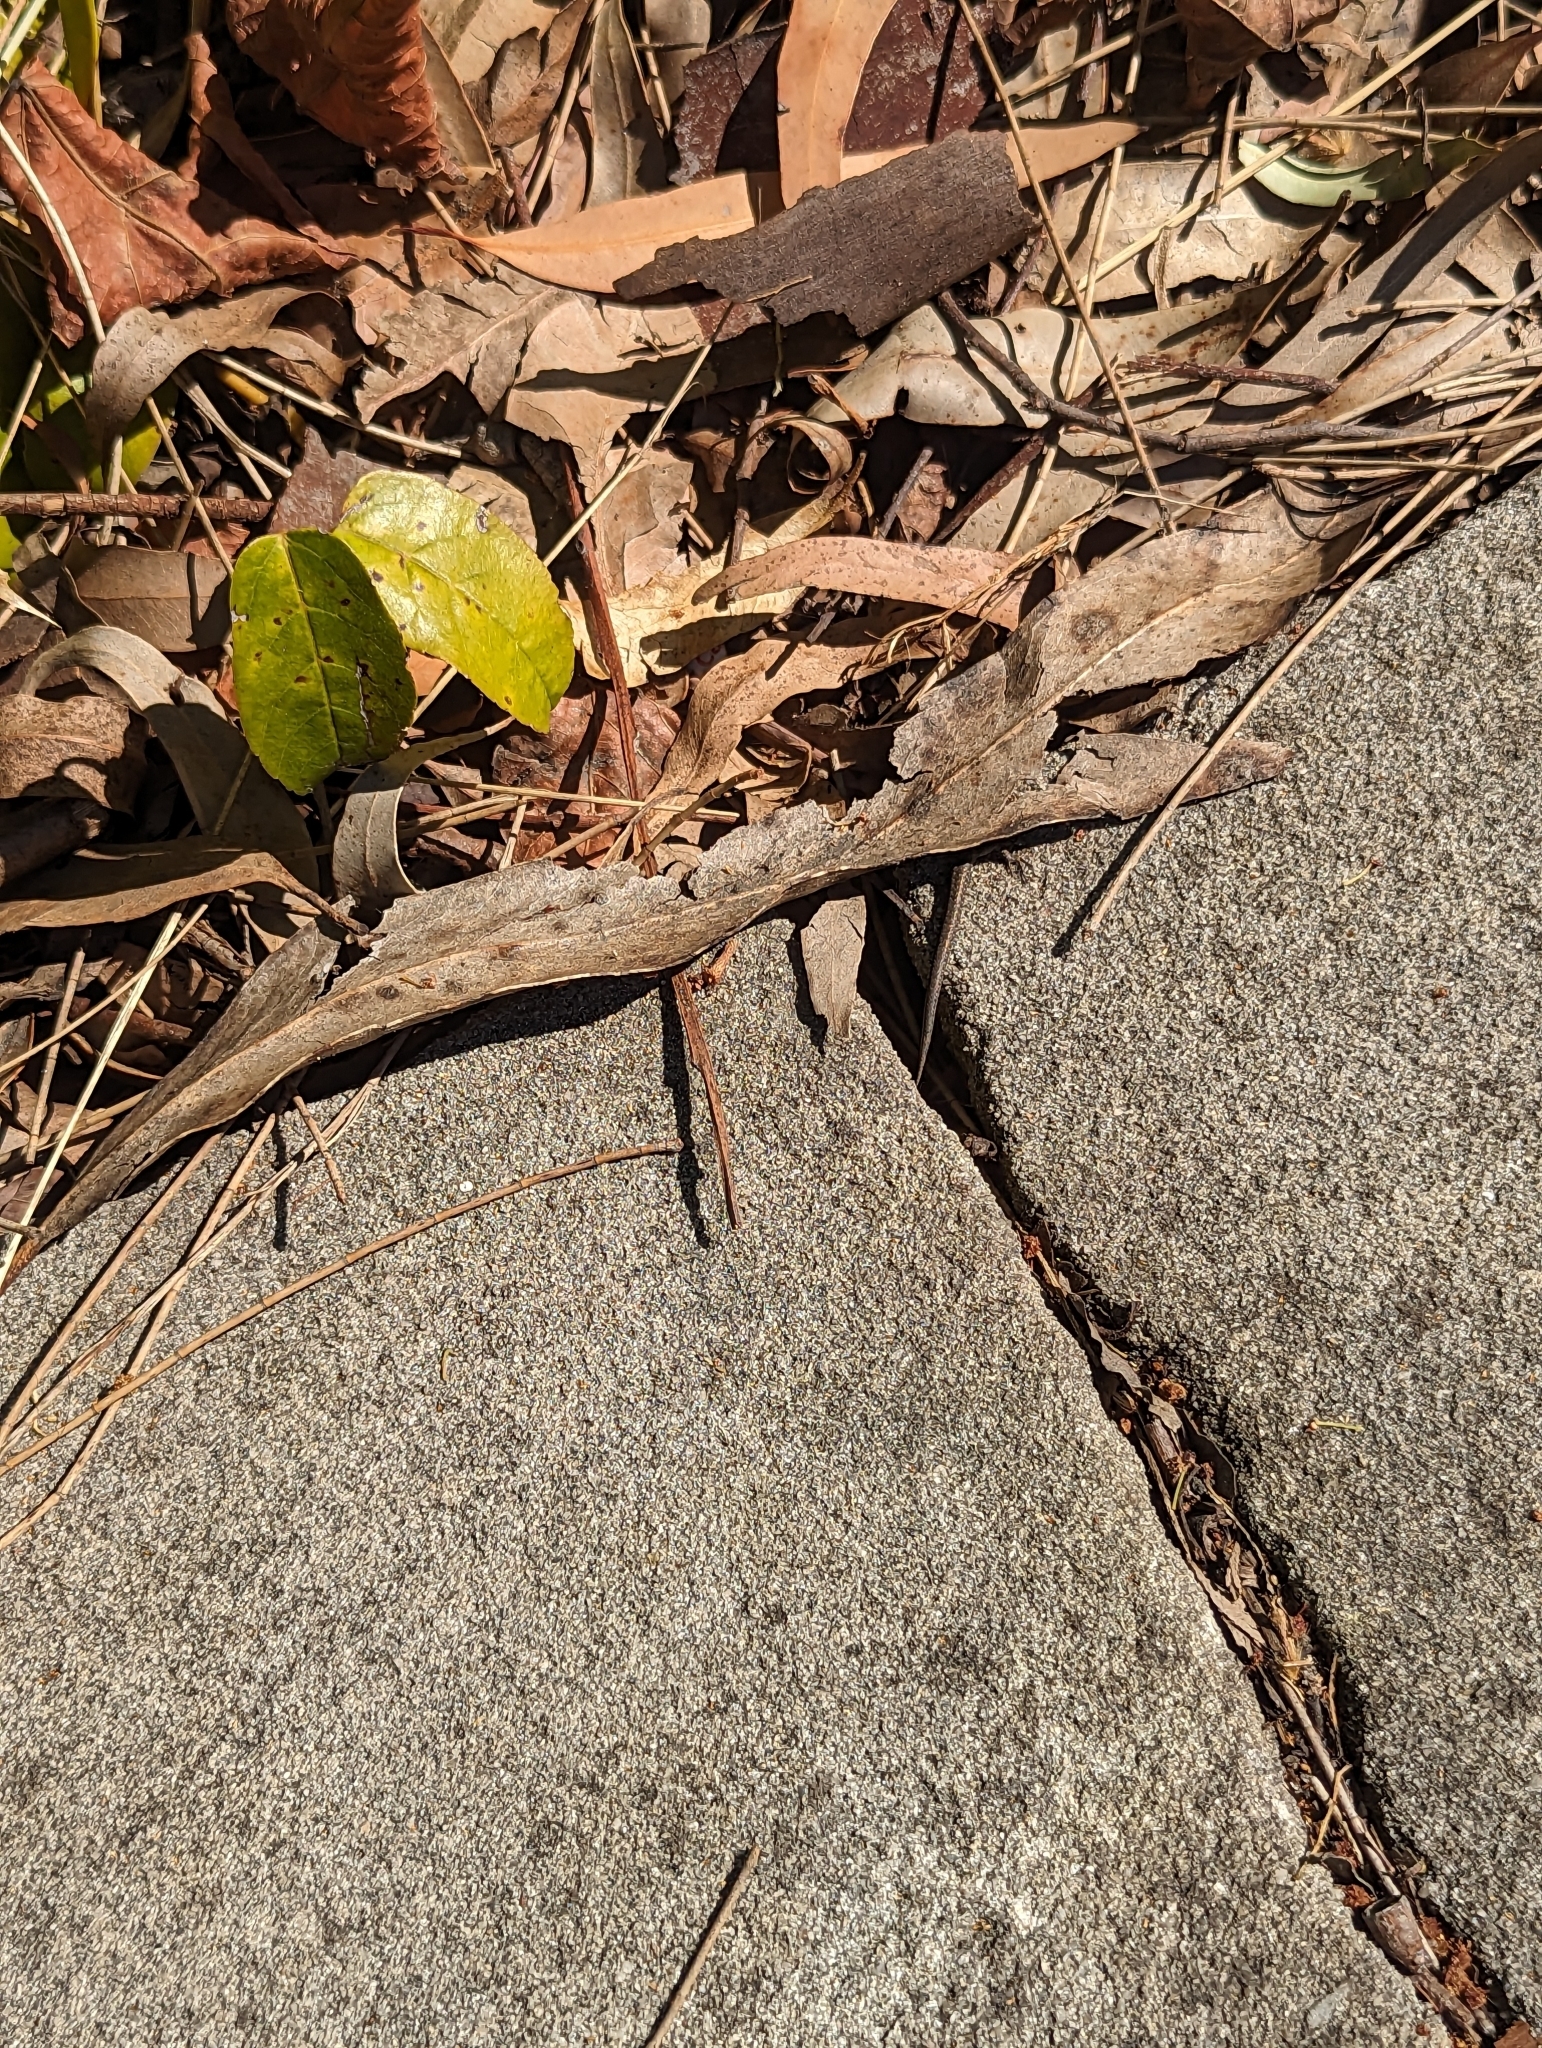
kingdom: Animalia
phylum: Chordata
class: Squamata
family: Scincidae
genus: Lampropholis
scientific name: Lampropholis guichenoti
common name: Garden skink
